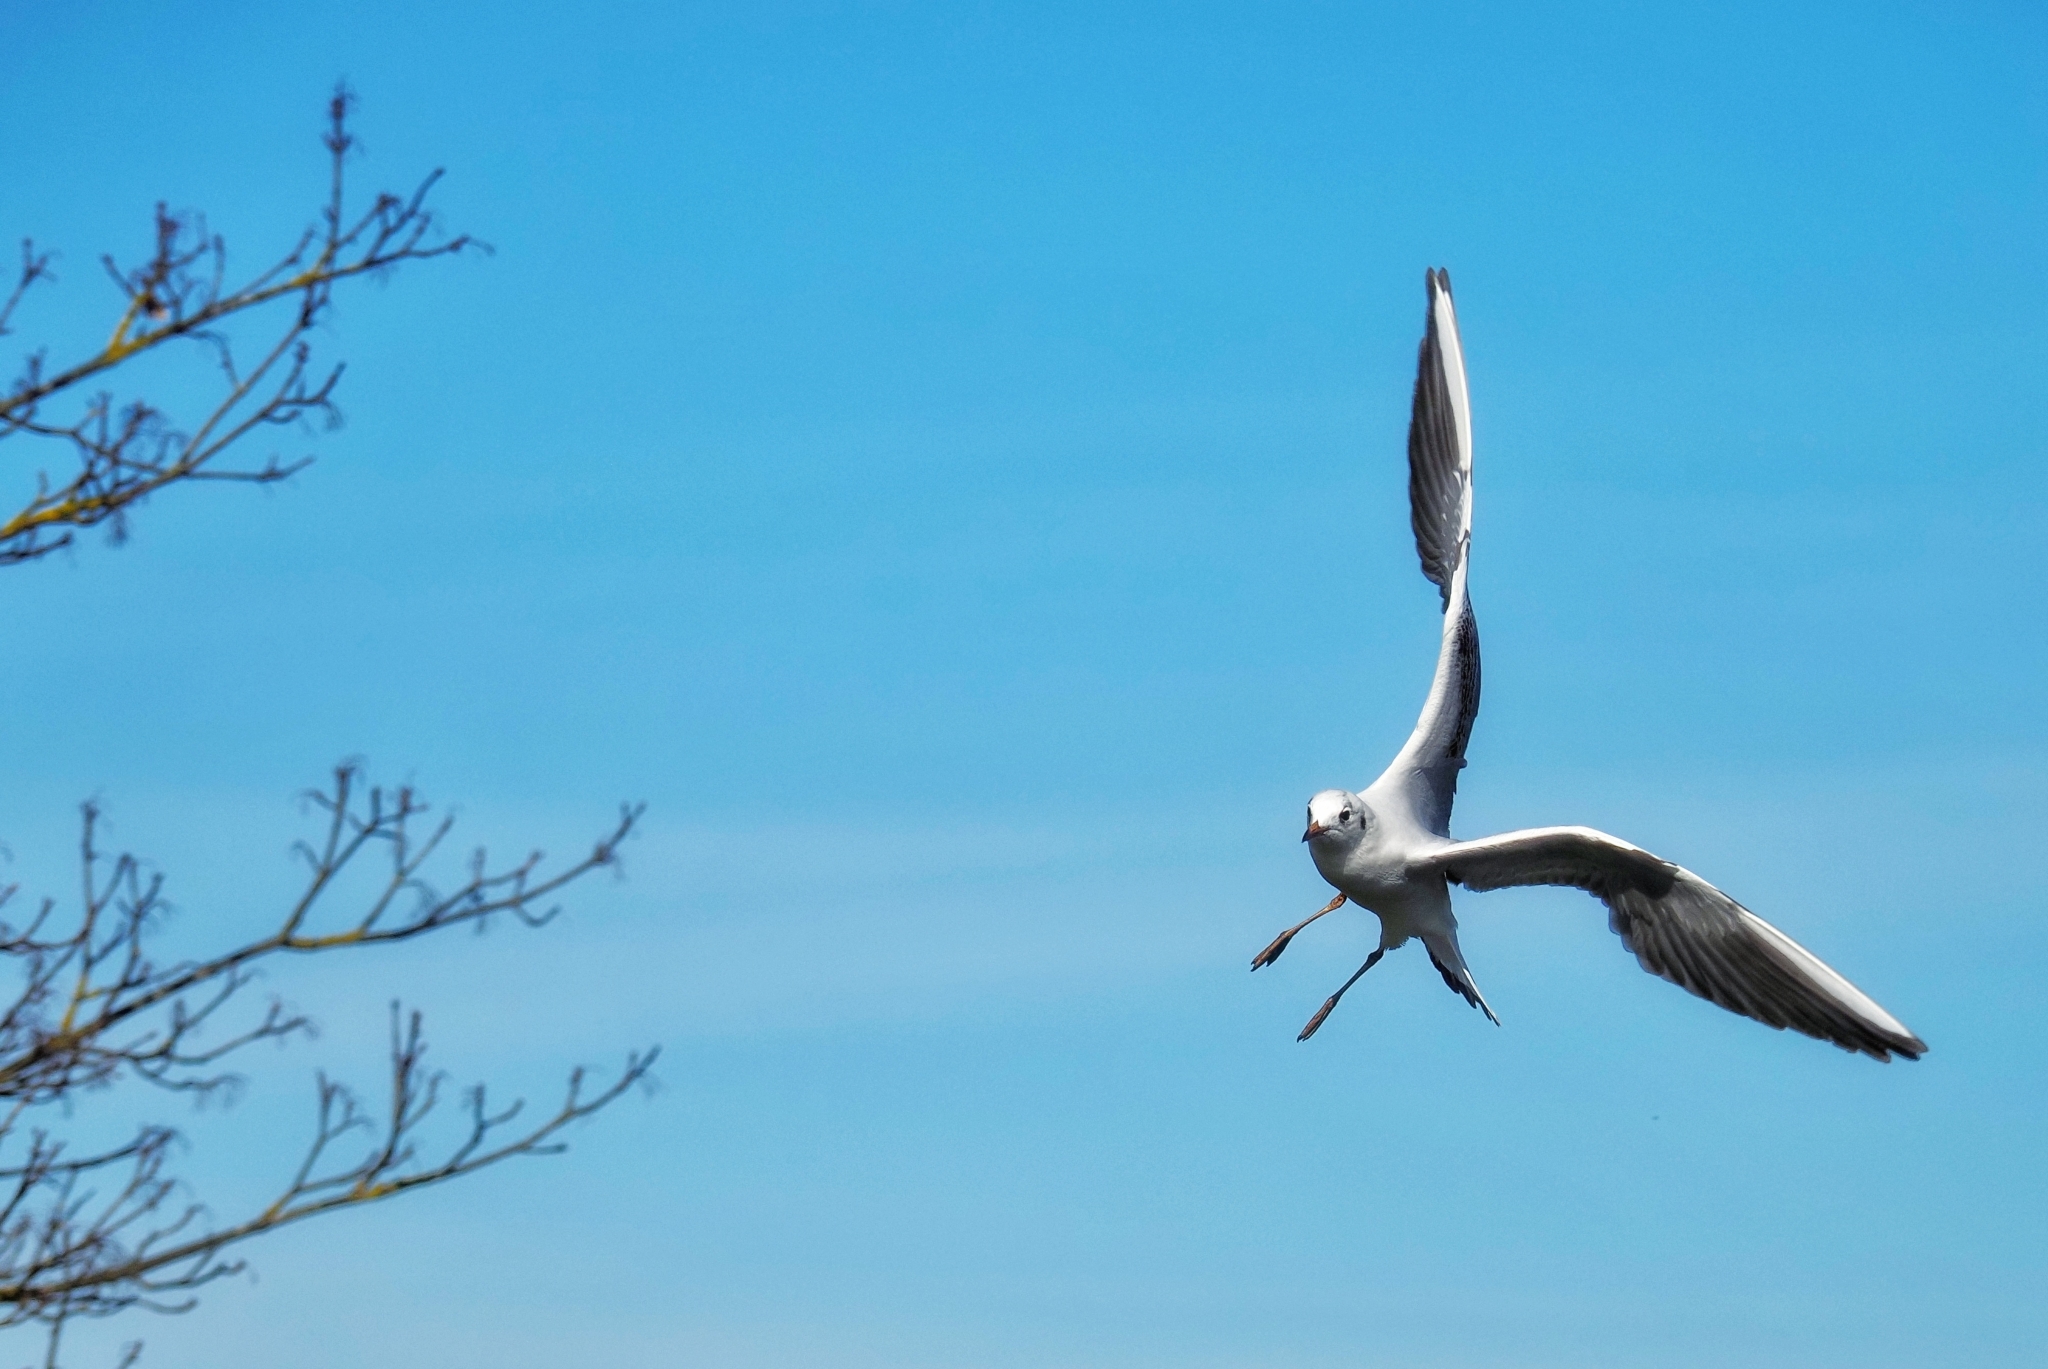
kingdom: Animalia
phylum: Chordata
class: Aves
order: Charadriiformes
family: Laridae
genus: Chroicocephalus
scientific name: Chroicocephalus ridibundus
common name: Black-headed gull
